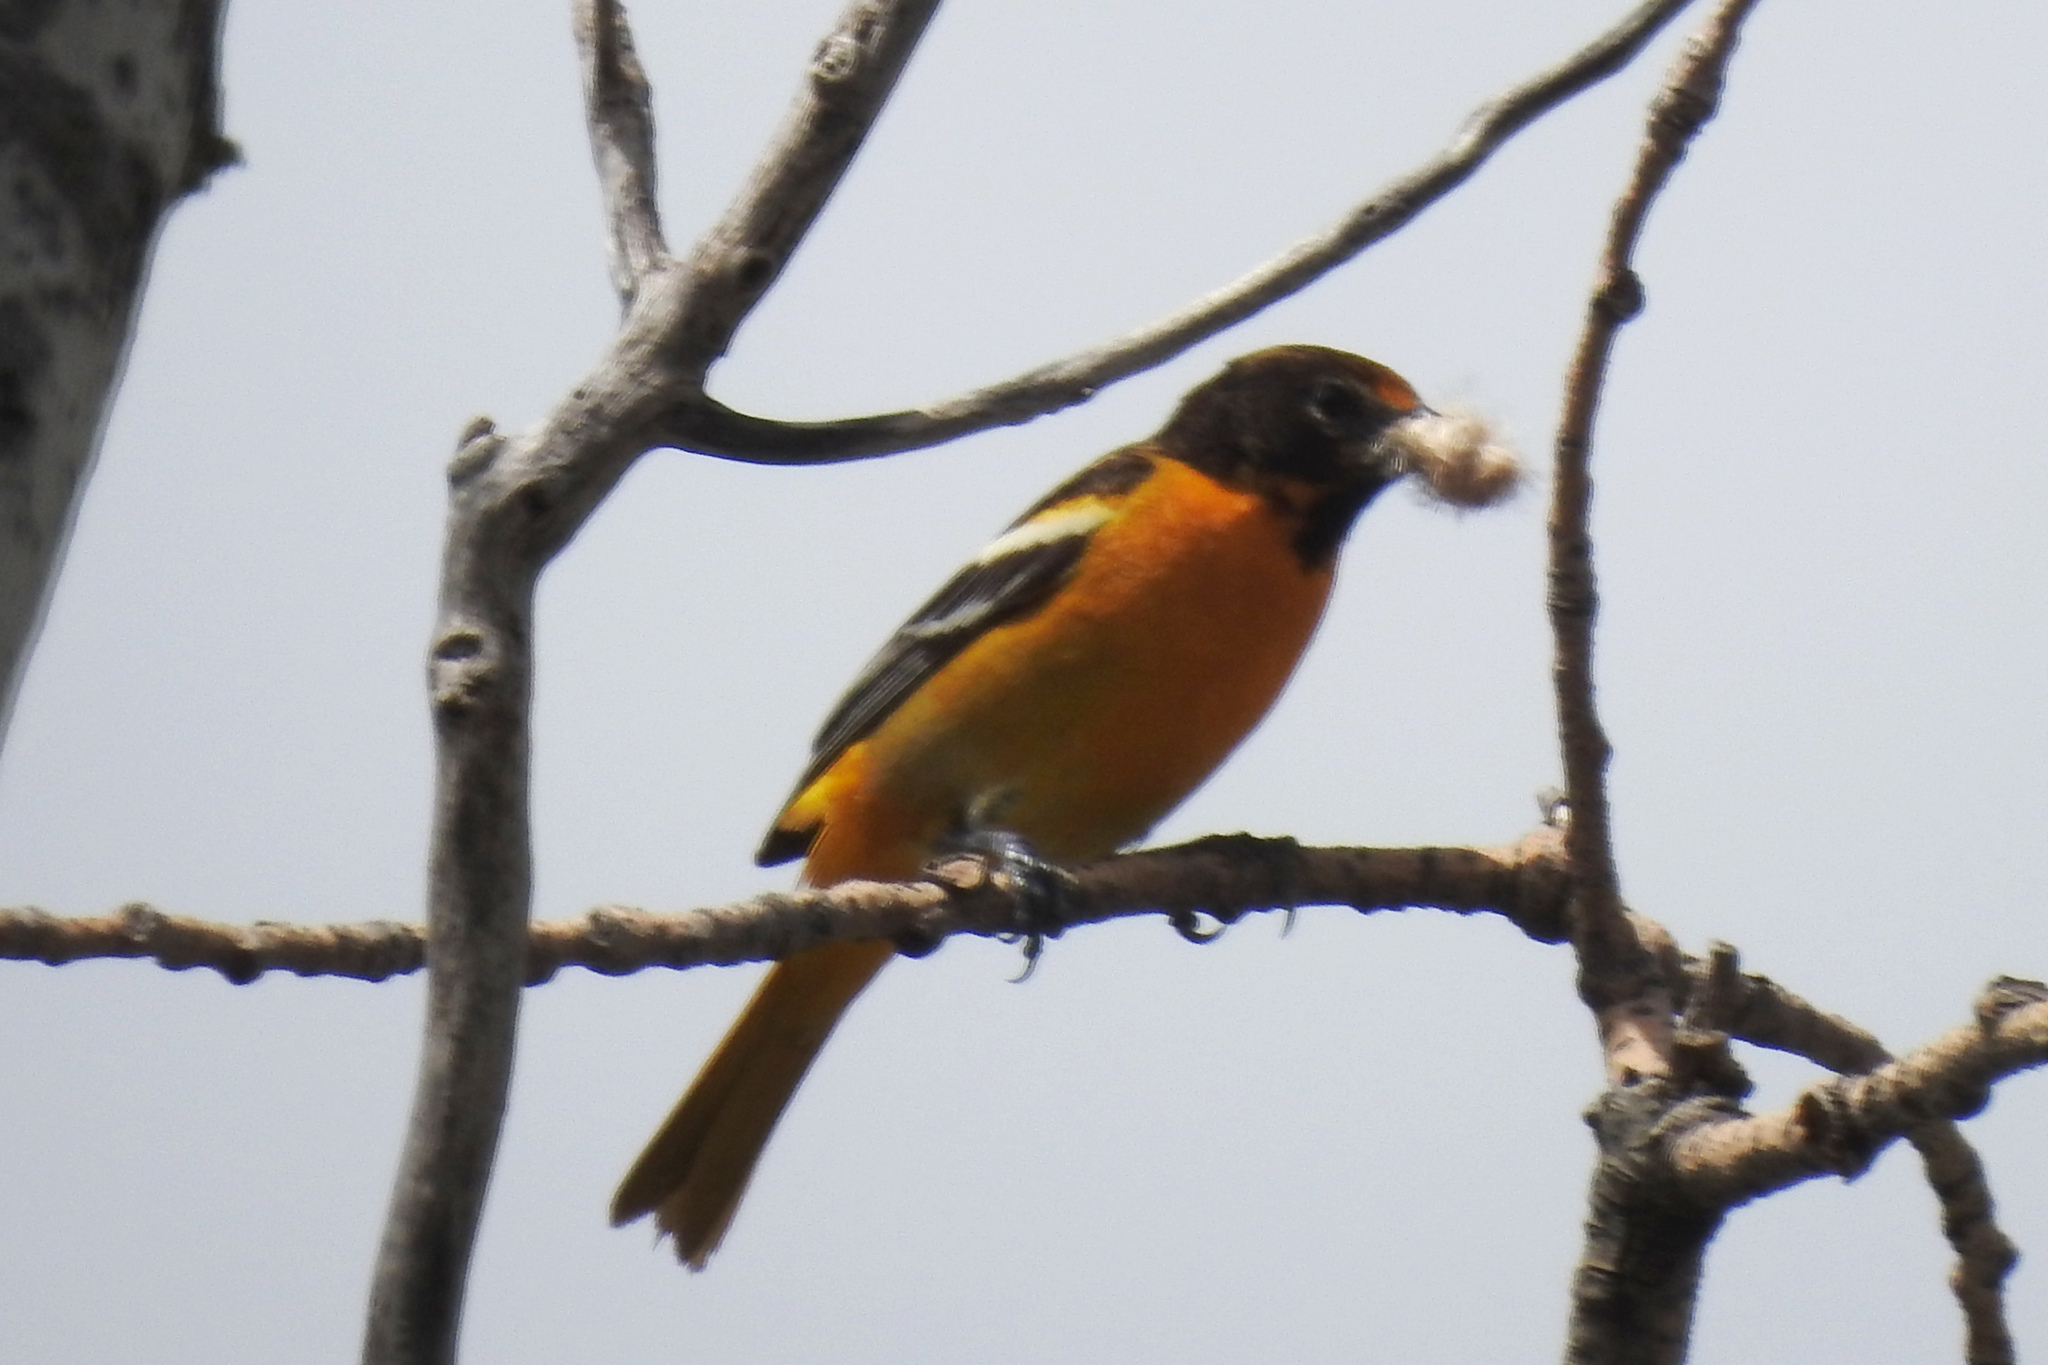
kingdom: Animalia
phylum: Chordata
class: Aves
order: Passeriformes
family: Icteridae
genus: Icterus
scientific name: Icterus galbula
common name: Baltimore oriole
